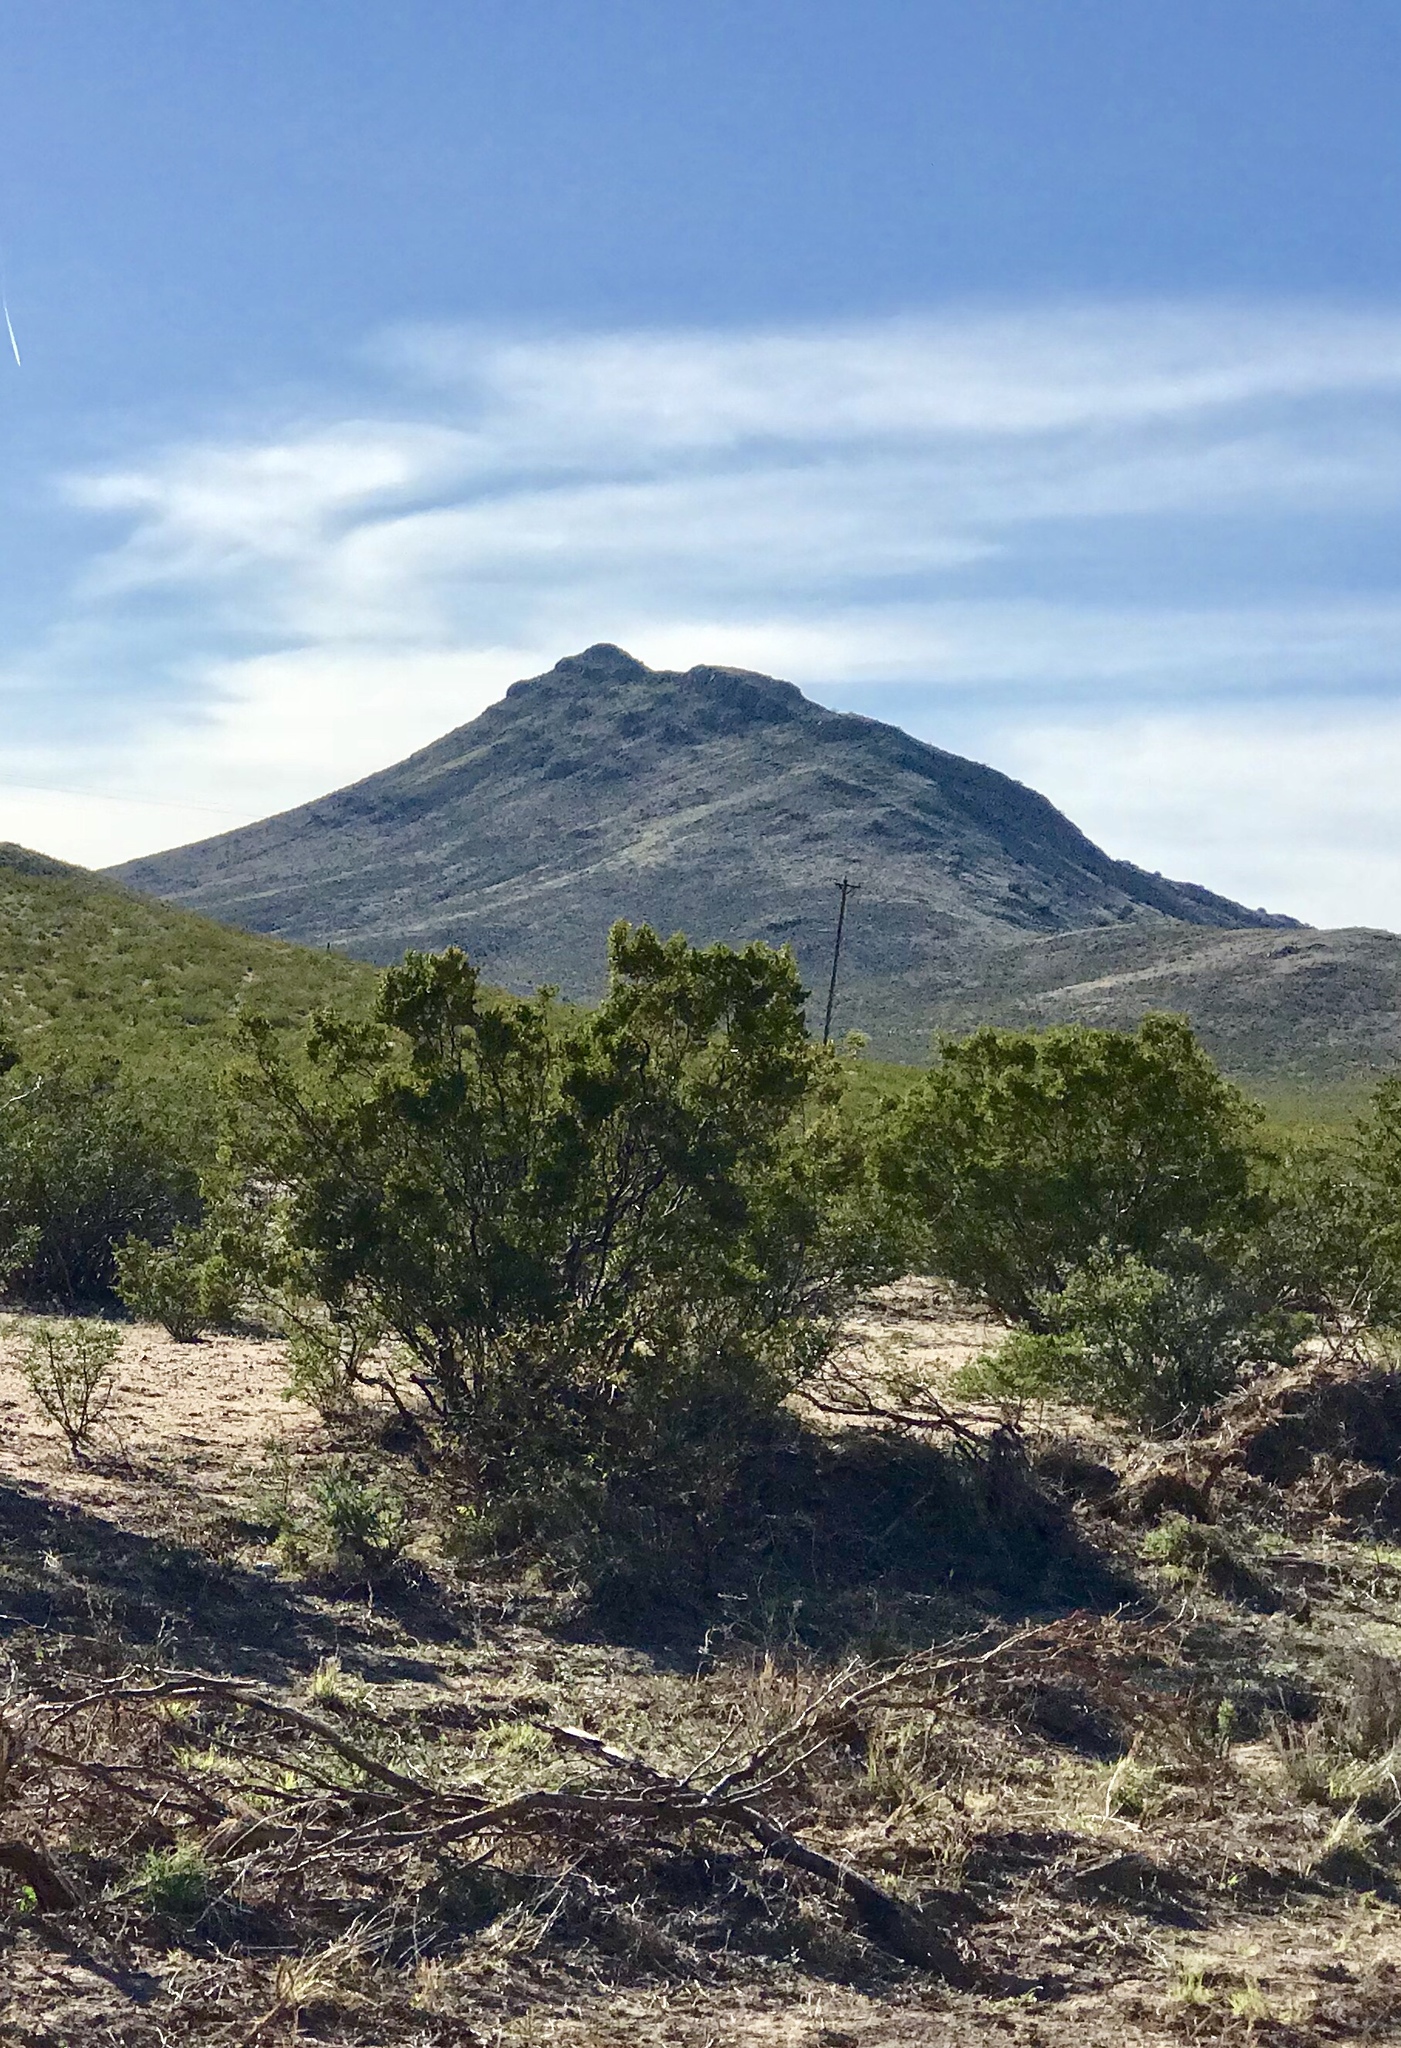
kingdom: Plantae
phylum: Tracheophyta
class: Magnoliopsida
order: Zygophyllales
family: Zygophyllaceae
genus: Larrea
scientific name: Larrea tridentata
